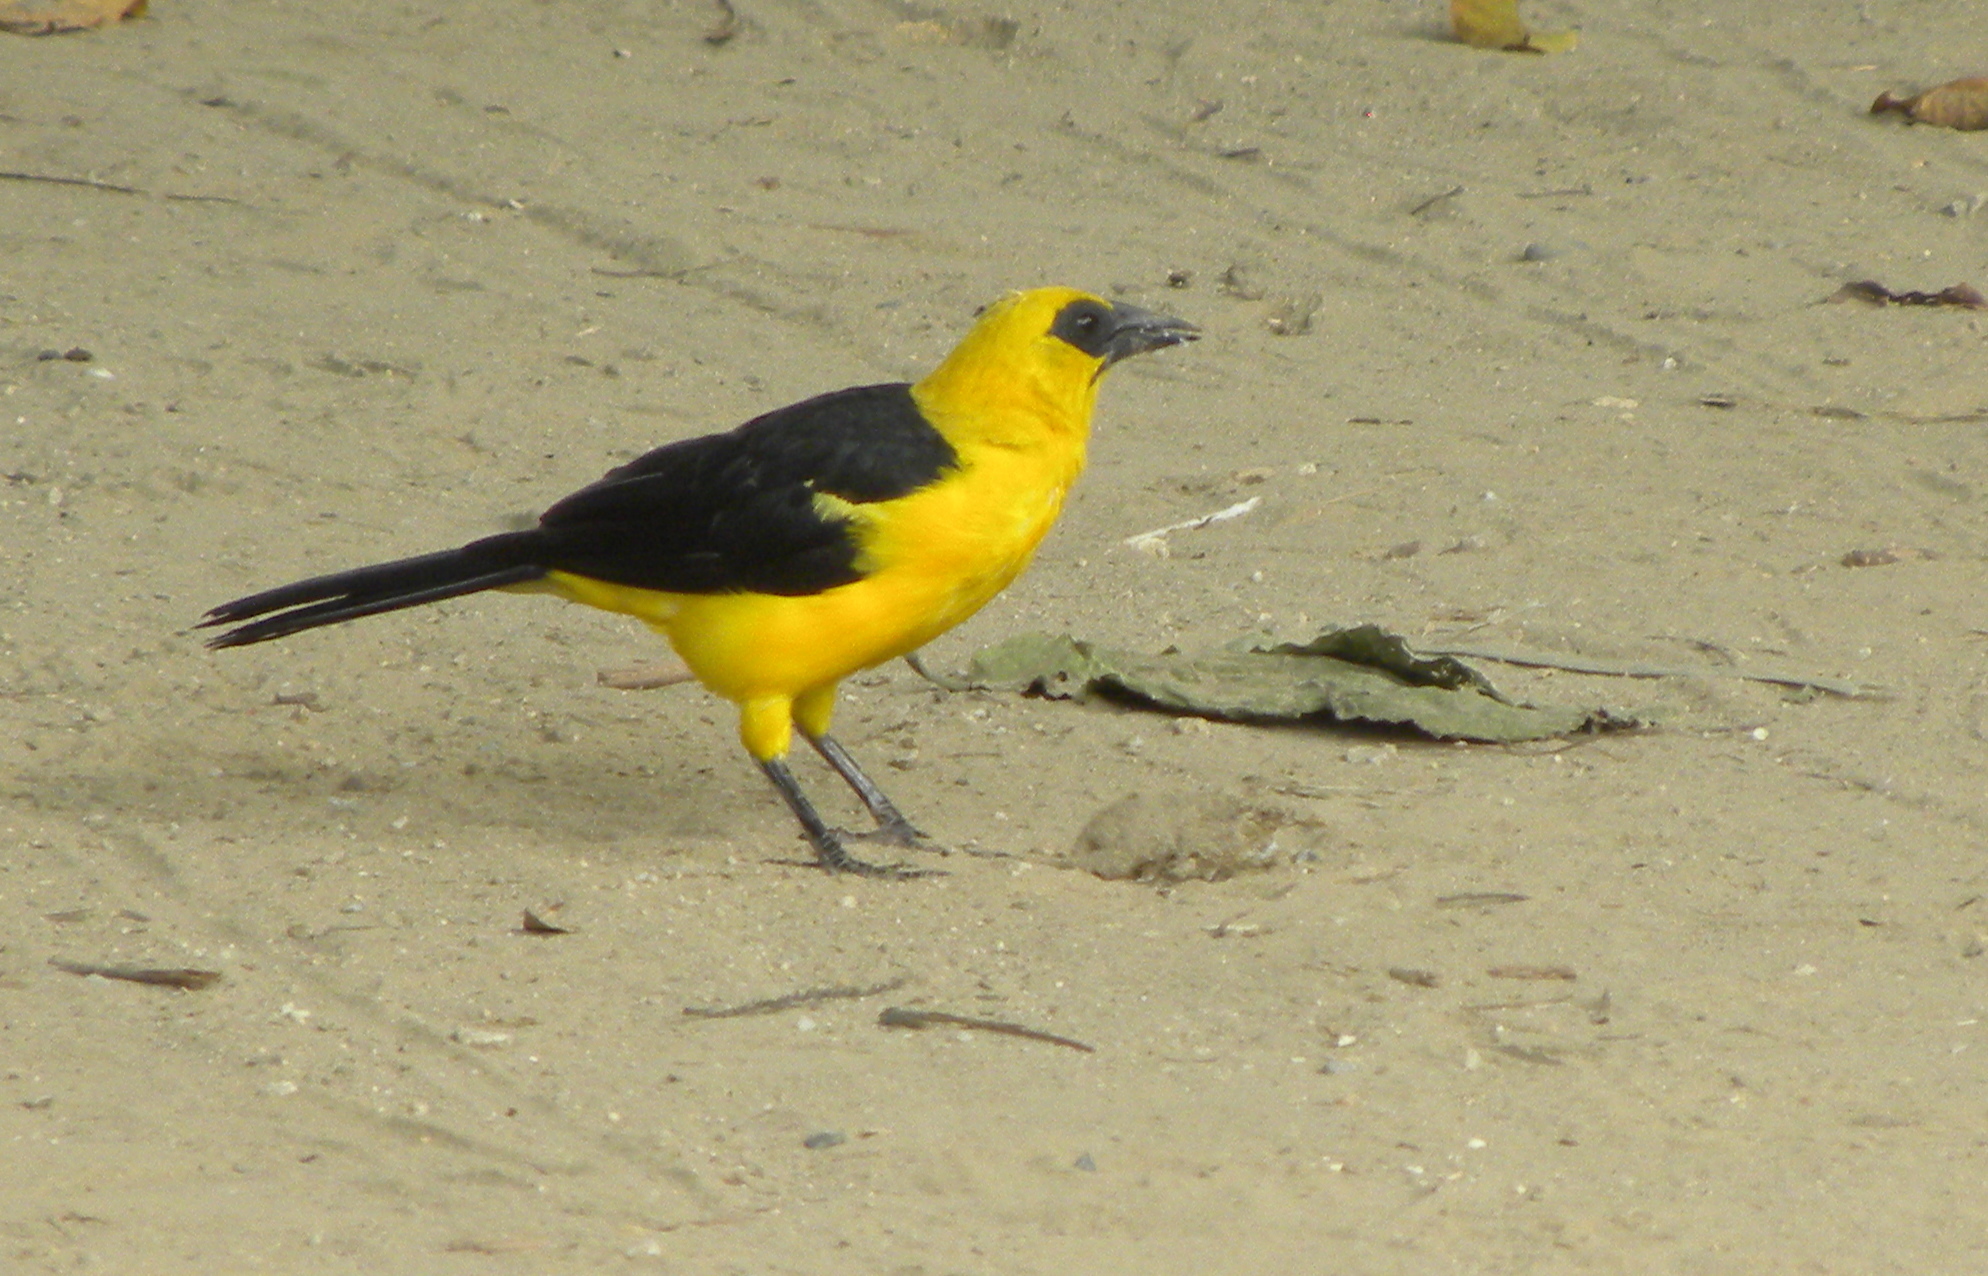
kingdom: Animalia
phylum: Chordata
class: Aves
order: Passeriformes
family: Icteridae
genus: Gymnomystax
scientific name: Gymnomystax mexicanus
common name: Oriole blackbird
